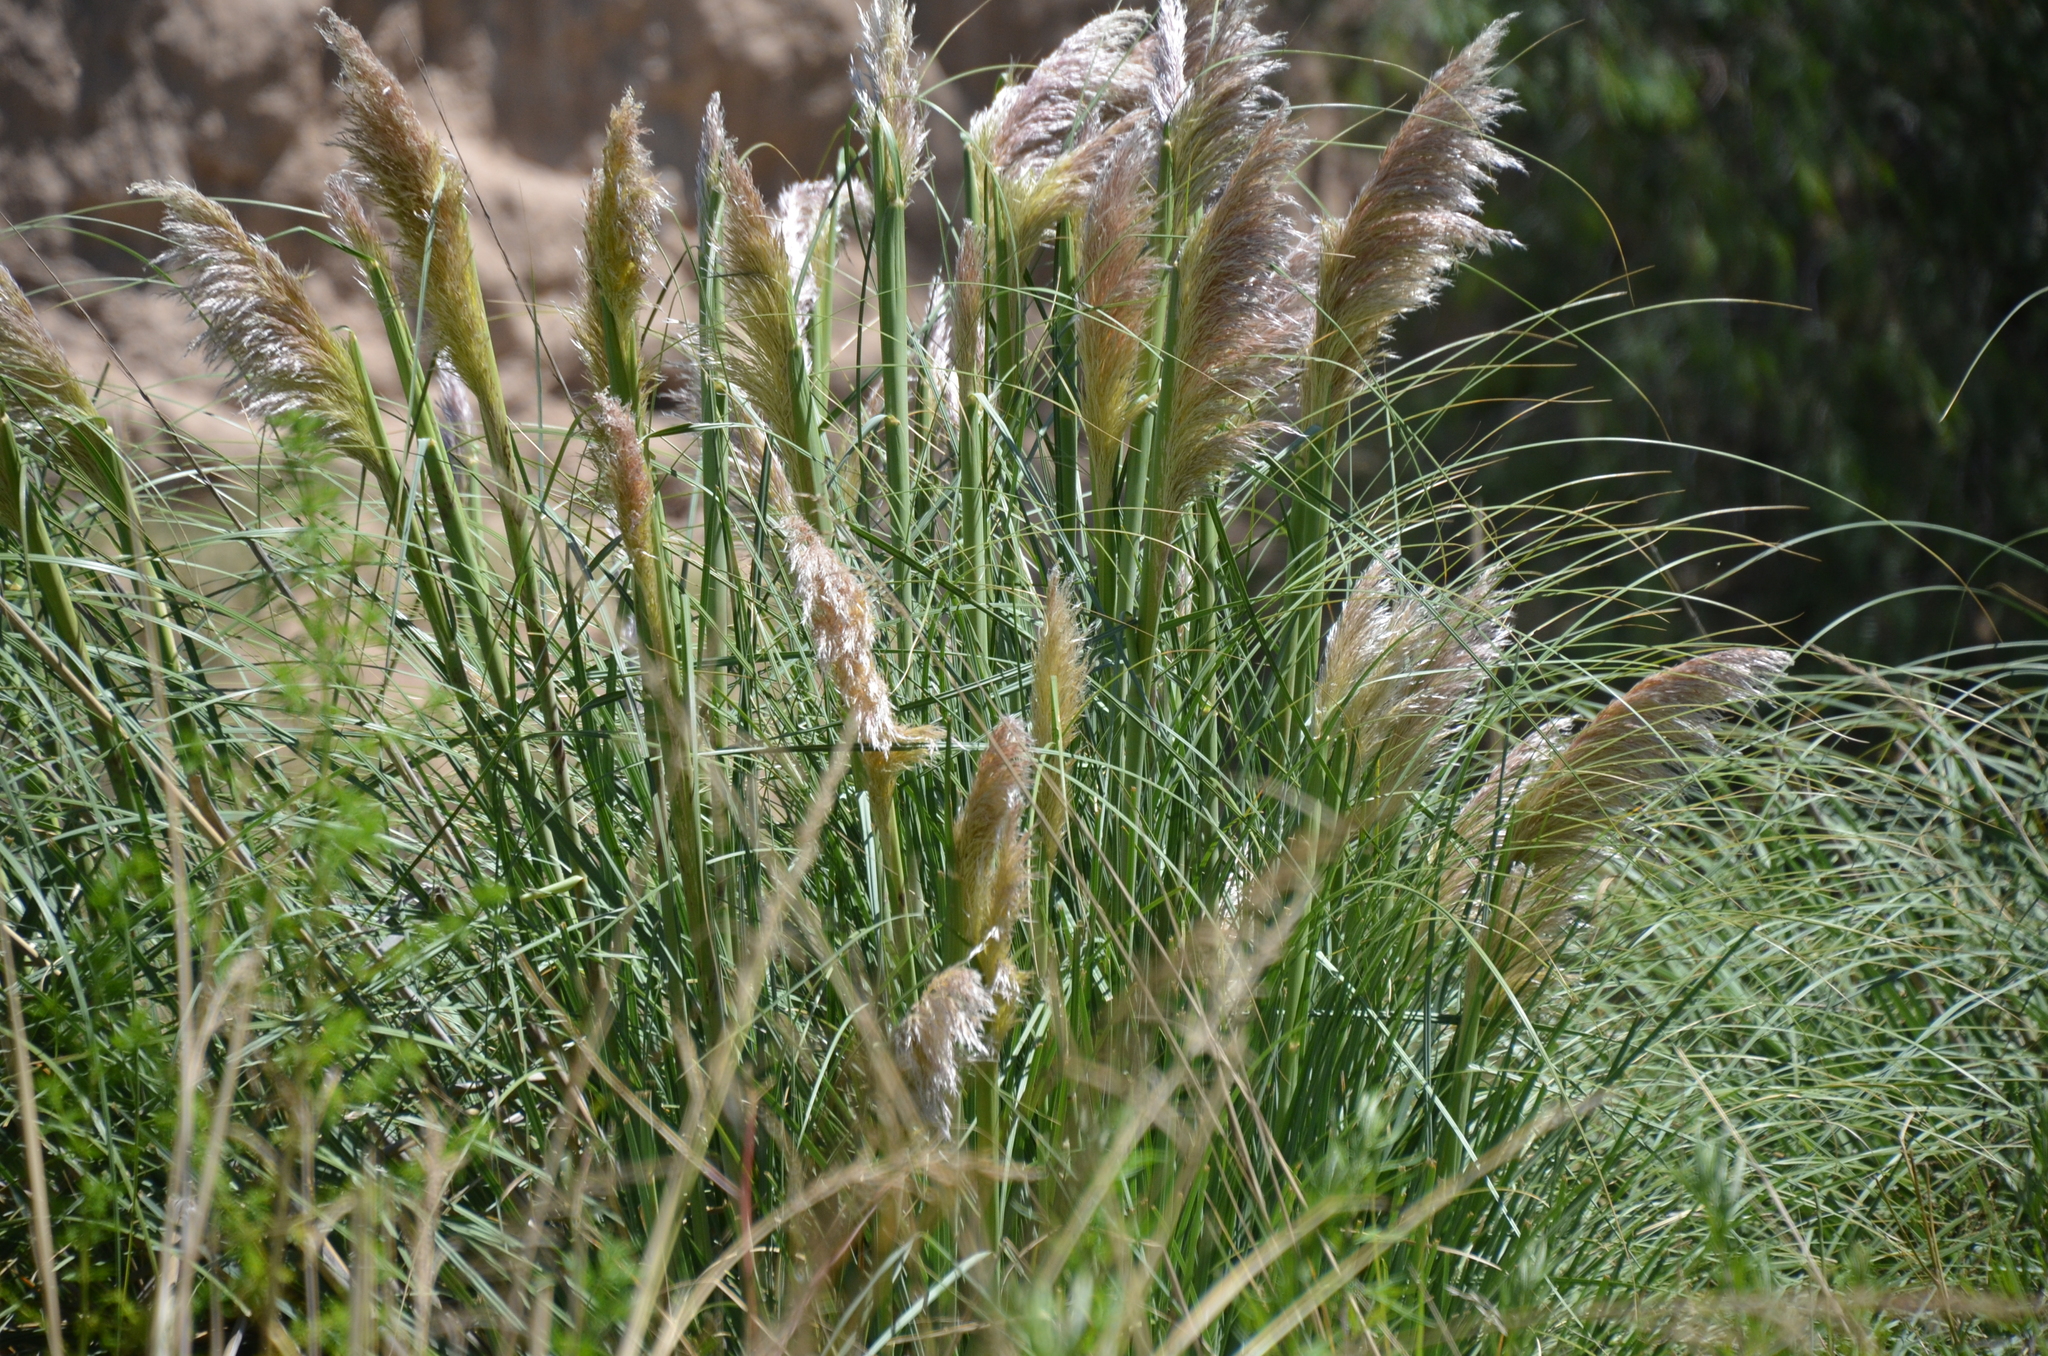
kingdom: Plantae
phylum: Tracheophyta
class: Liliopsida
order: Poales
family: Poaceae
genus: Cortaderia
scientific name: Cortaderia selloana
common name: Uruguayan pampas grass
